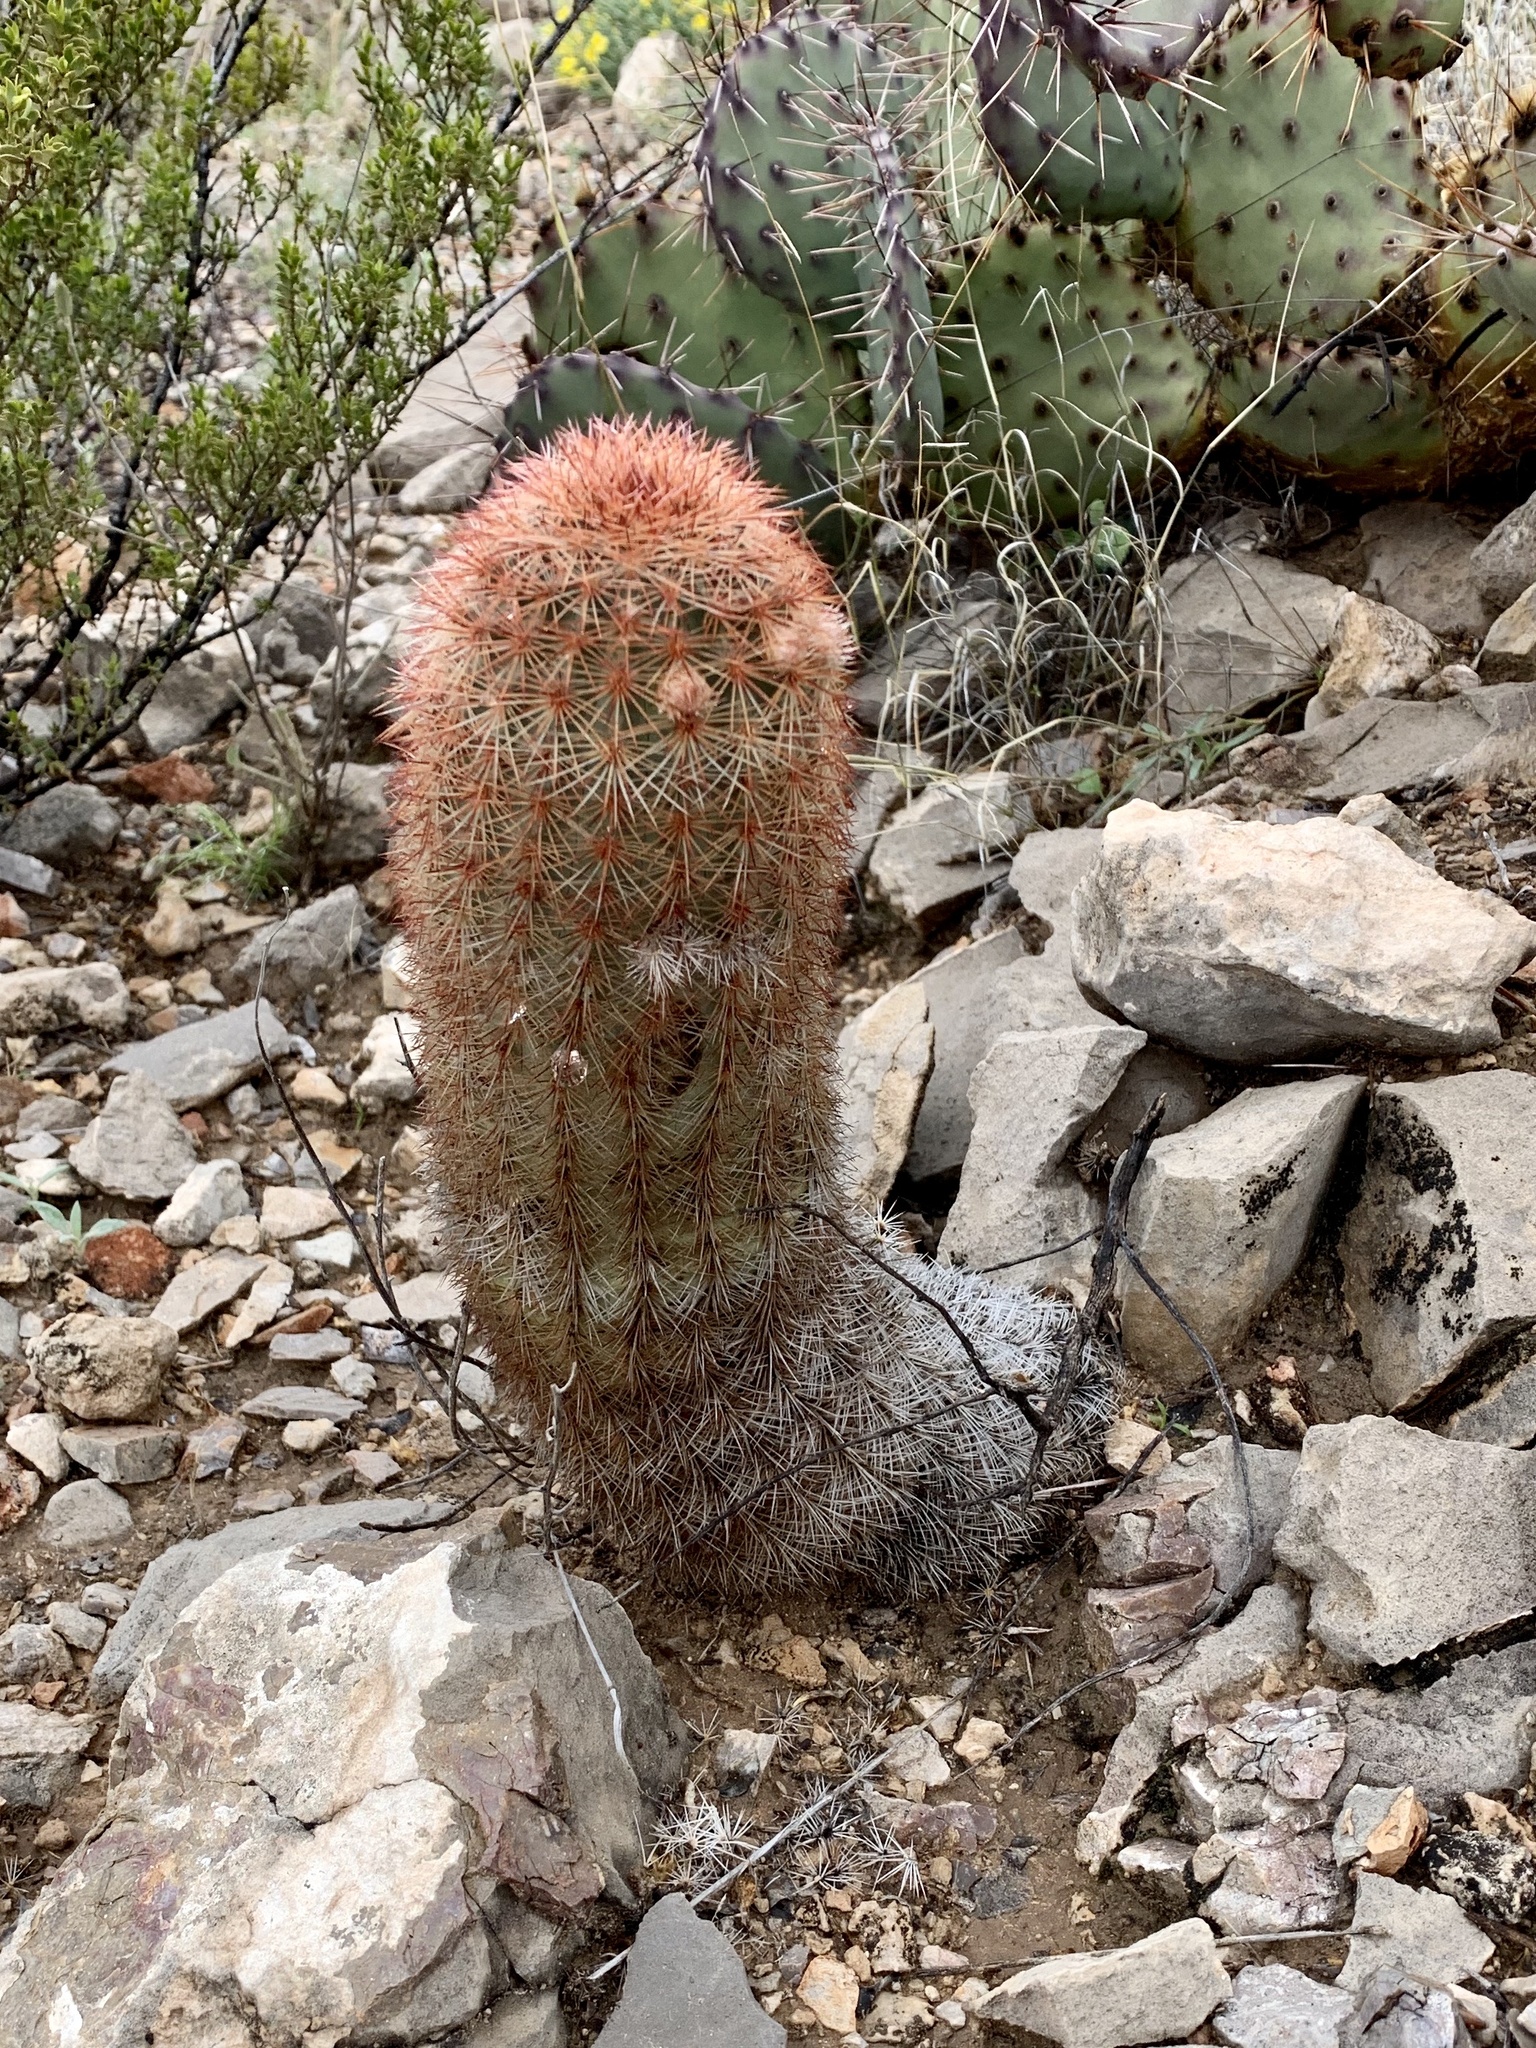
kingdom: Plantae
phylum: Tracheophyta
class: Magnoliopsida
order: Caryophyllales
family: Cactaceae
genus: Echinocereus
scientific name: Echinocereus dasyacanthus
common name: Spiny hedgehog cactus
